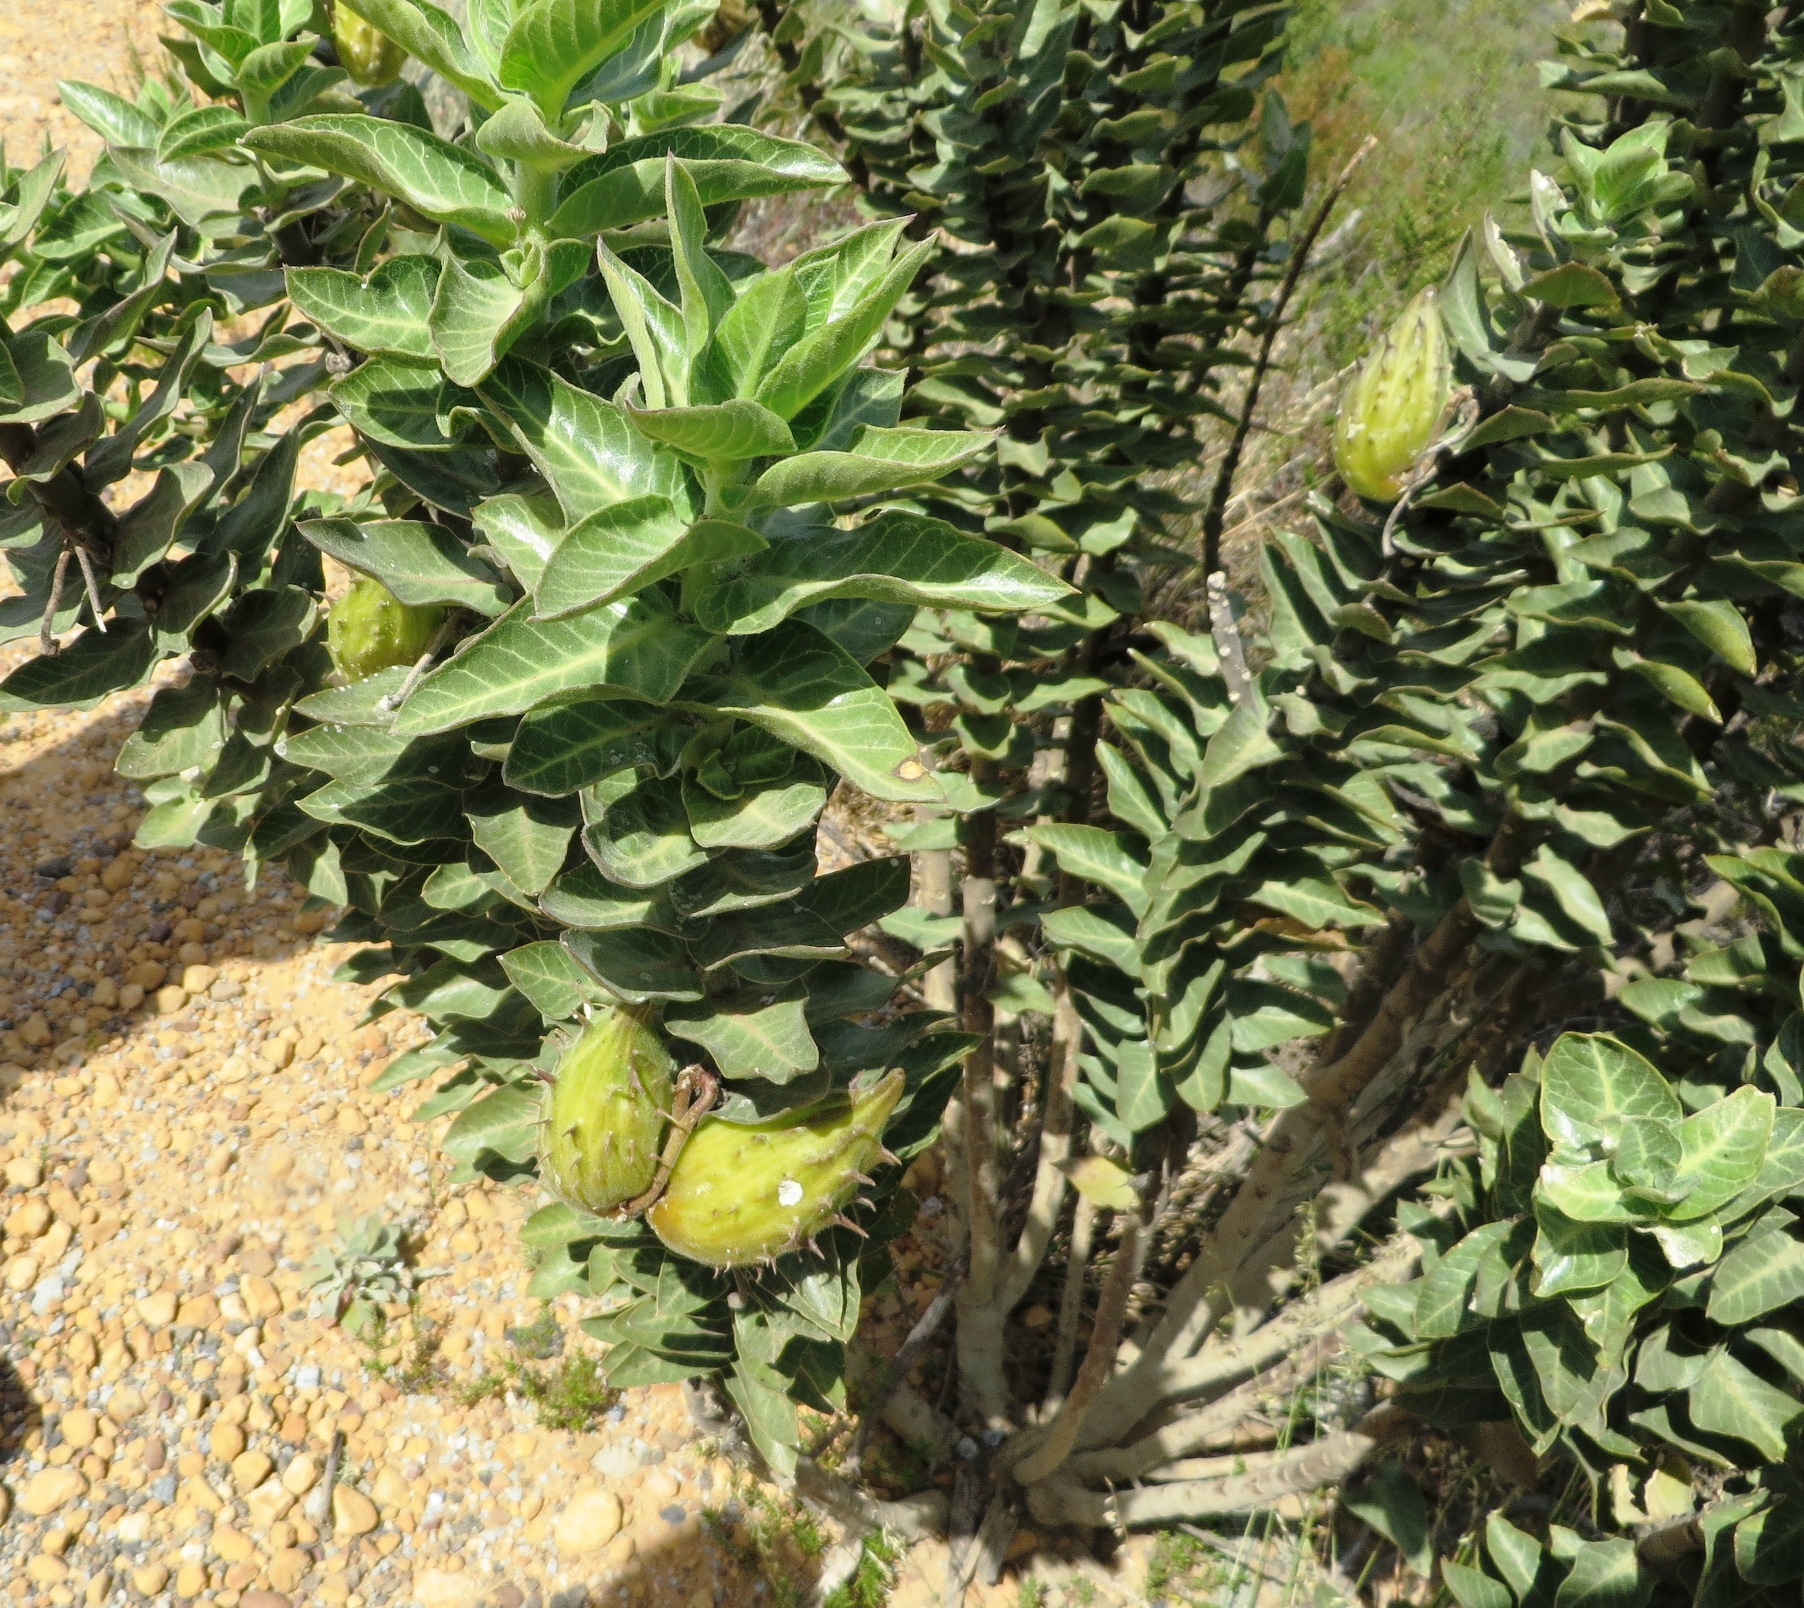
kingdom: Plantae
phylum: Tracheophyta
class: Magnoliopsida
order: Gentianales
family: Apocynaceae
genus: Gomphocarpus
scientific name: Gomphocarpus cancellatus
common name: Wild cotton
